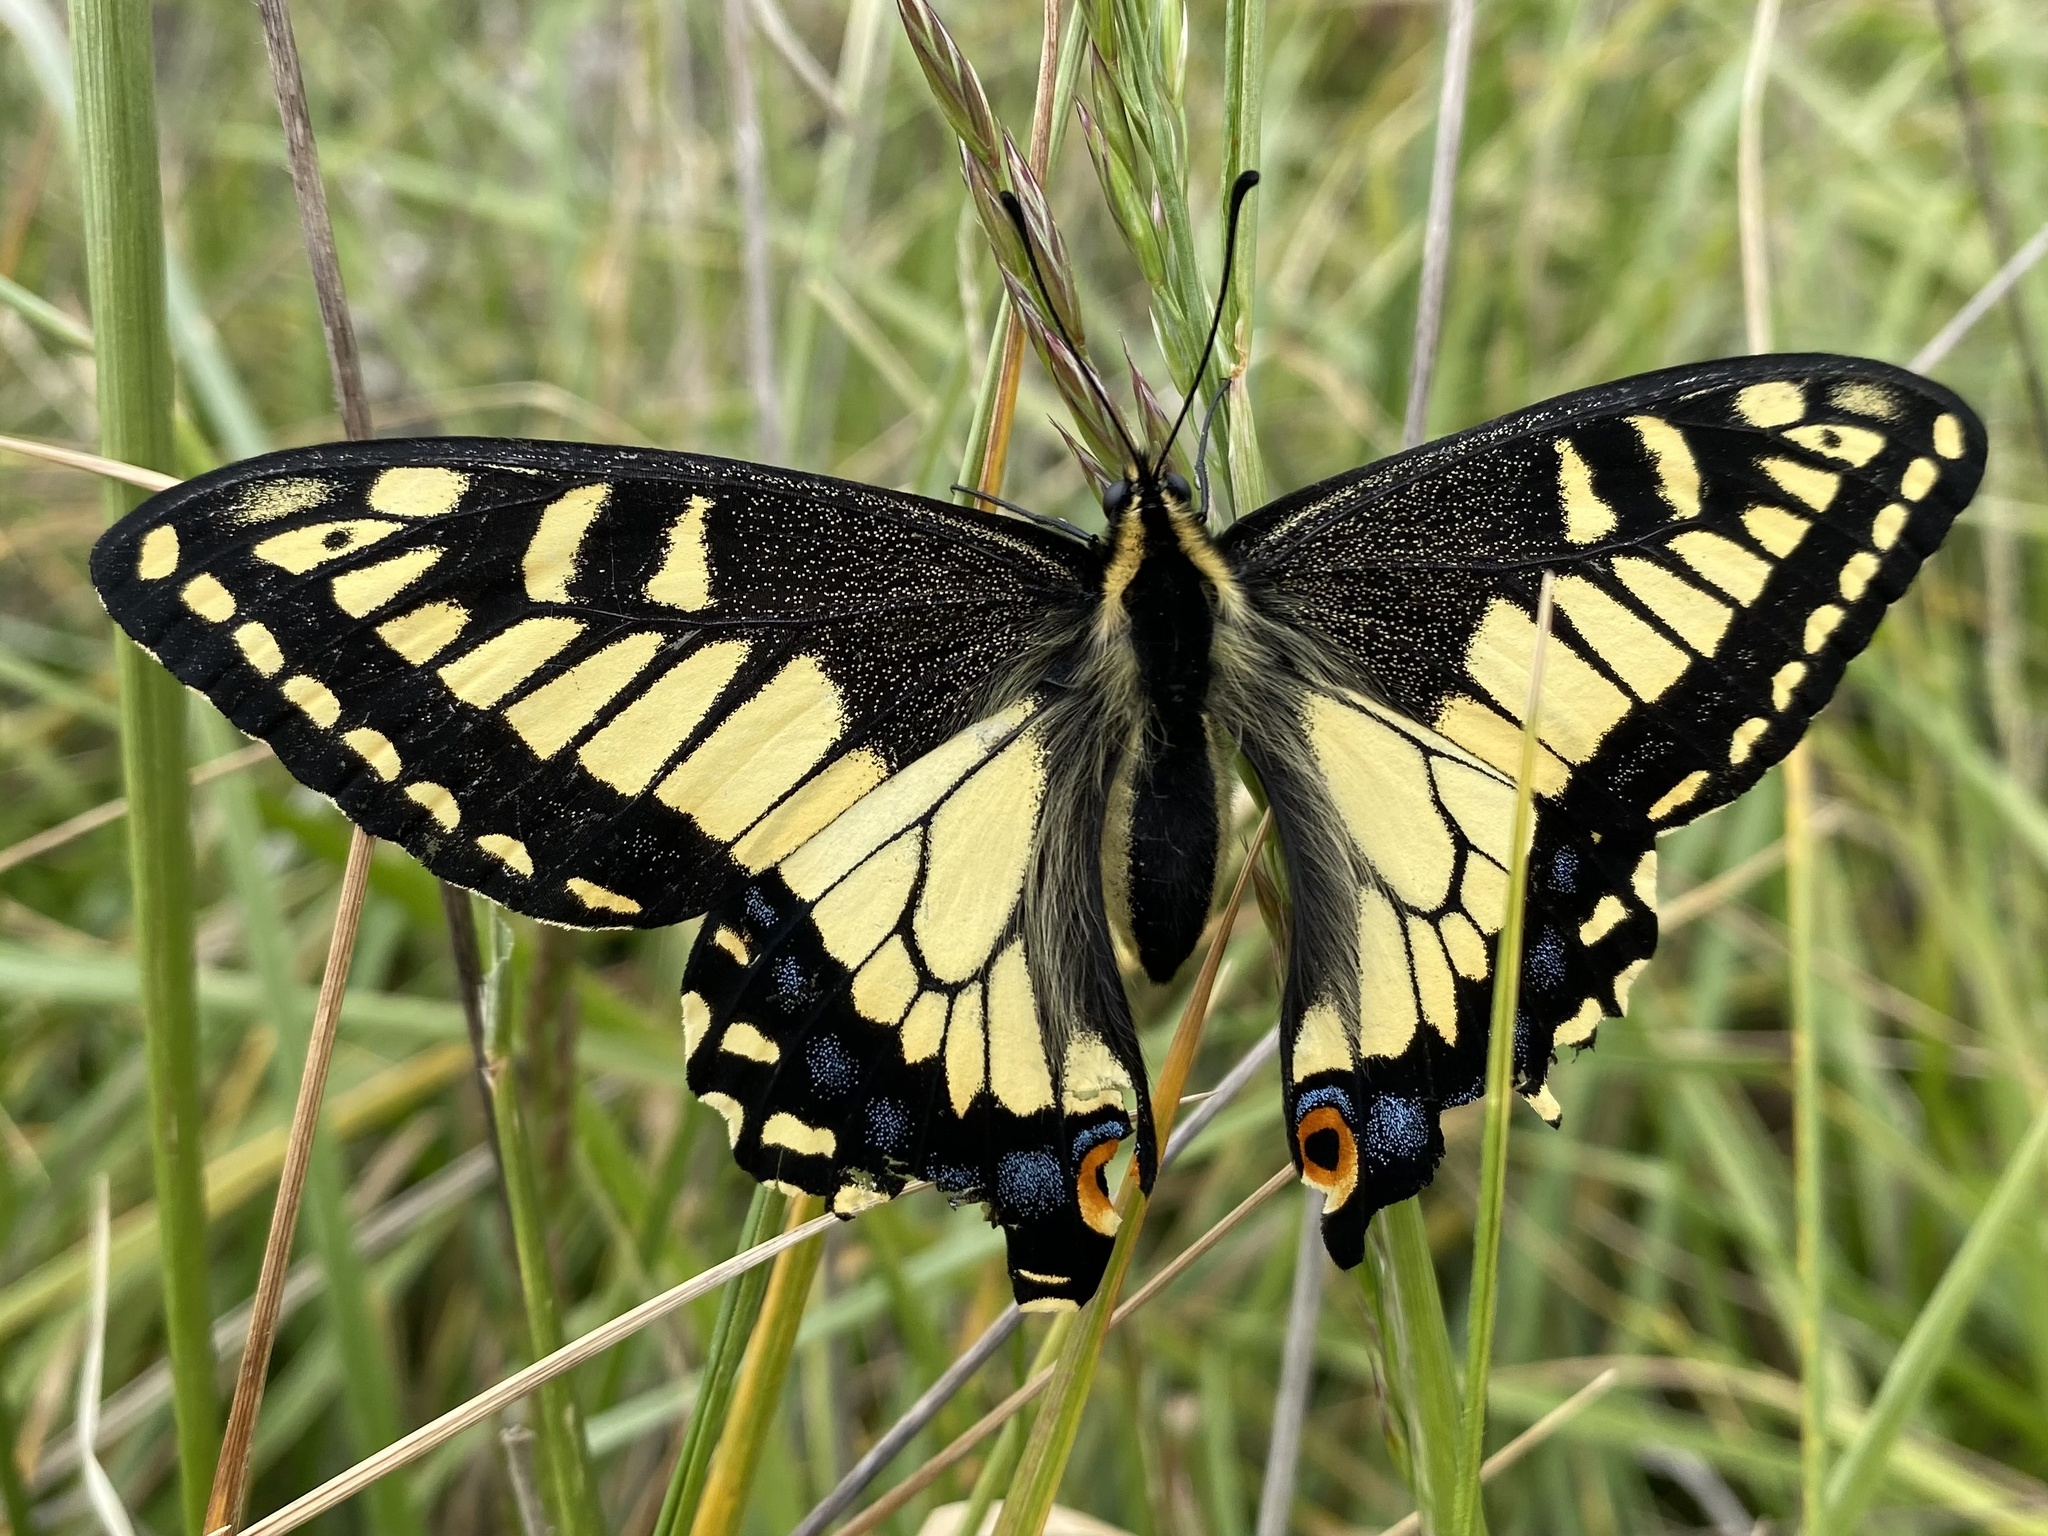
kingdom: Animalia
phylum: Arthropoda
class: Insecta
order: Lepidoptera
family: Papilionidae
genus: Papilio
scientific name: Papilio zelicaon
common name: Anise swallowtail
